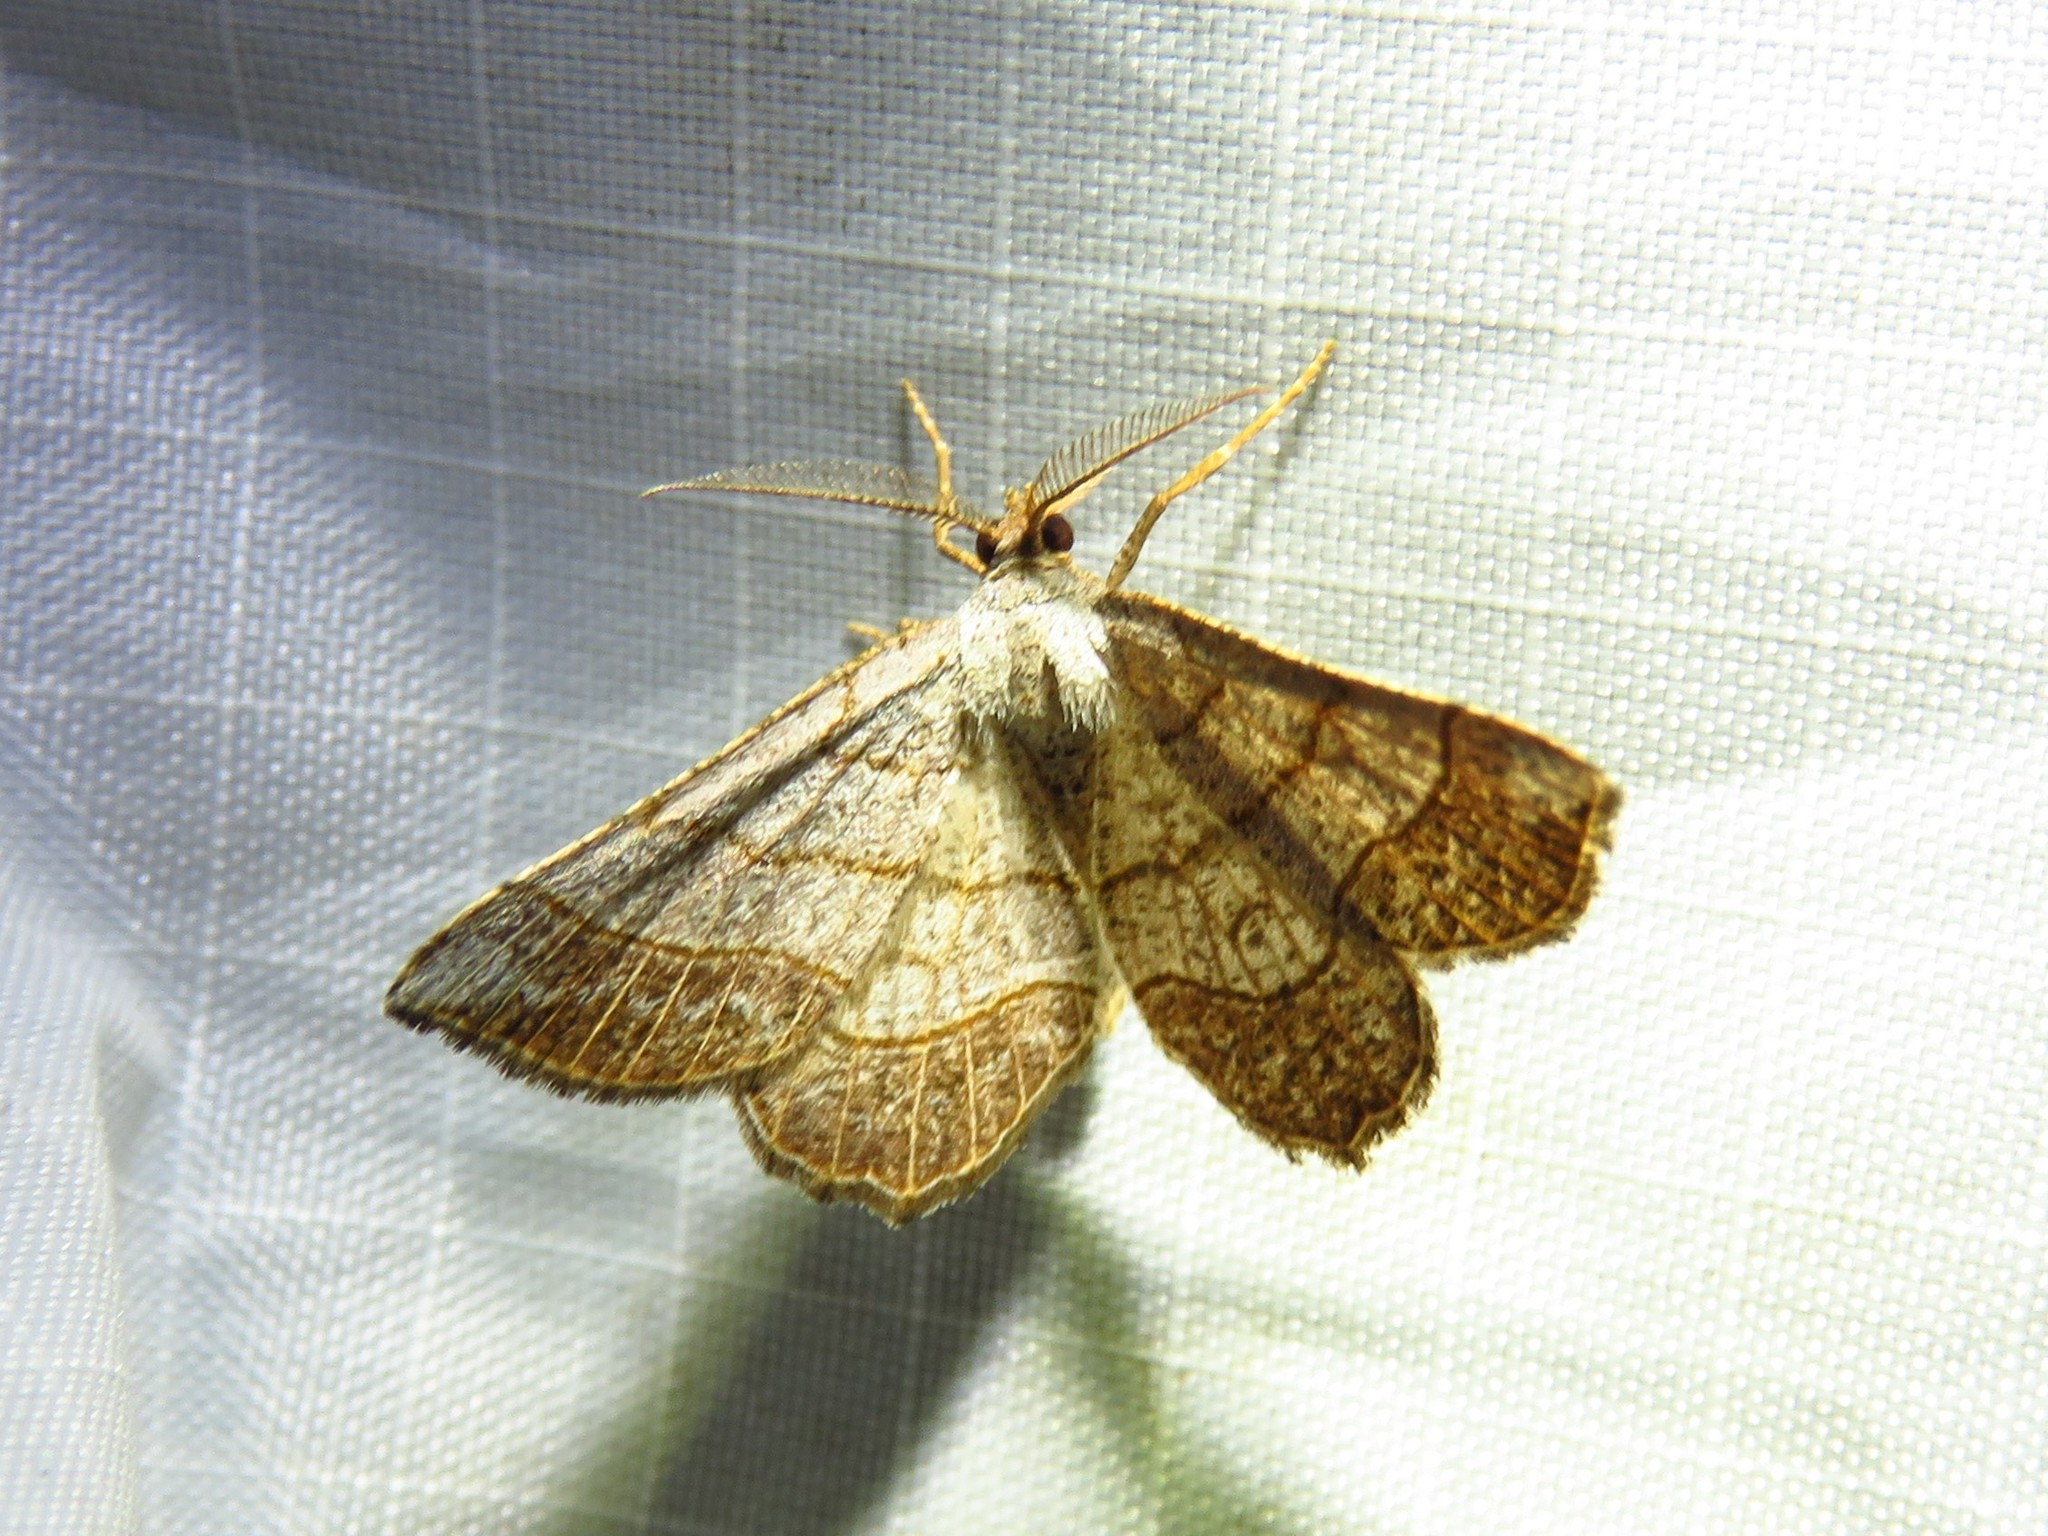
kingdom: Animalia
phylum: Arthropoda
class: Insecta
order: Lepidoptera
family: Geometridae
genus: Eumacaria
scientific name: Eumacaria madopata
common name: Brown-bordered geometer
